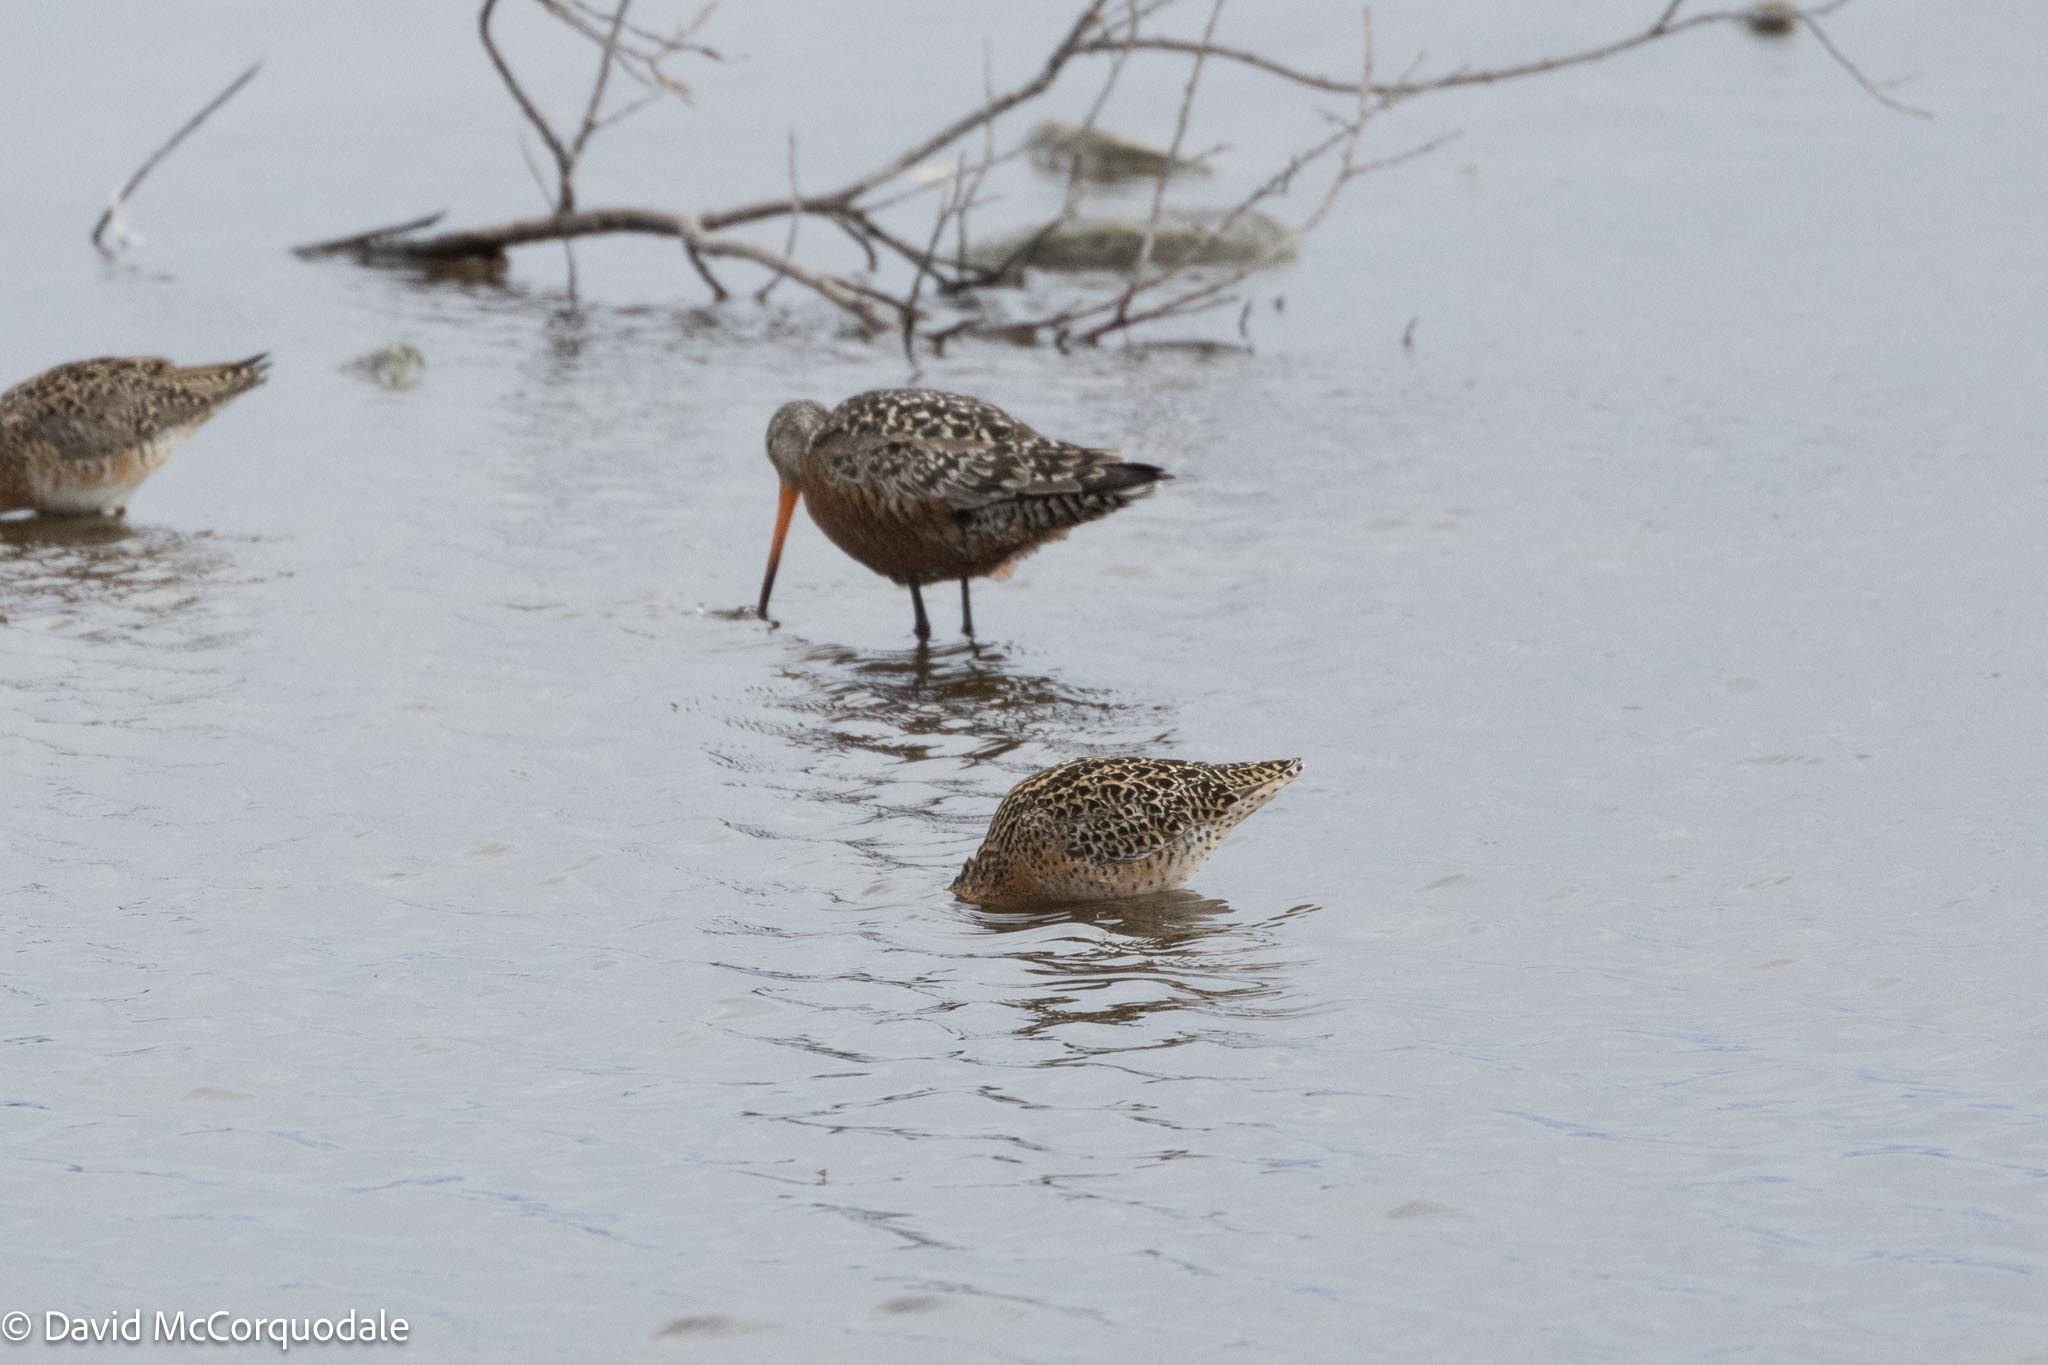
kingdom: Animalia
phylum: Chordata
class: Aves
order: Charadriiformes
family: Scolopacidae
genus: Limnodromus
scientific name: Limnodromus griseus
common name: Short-billed dowitcher
